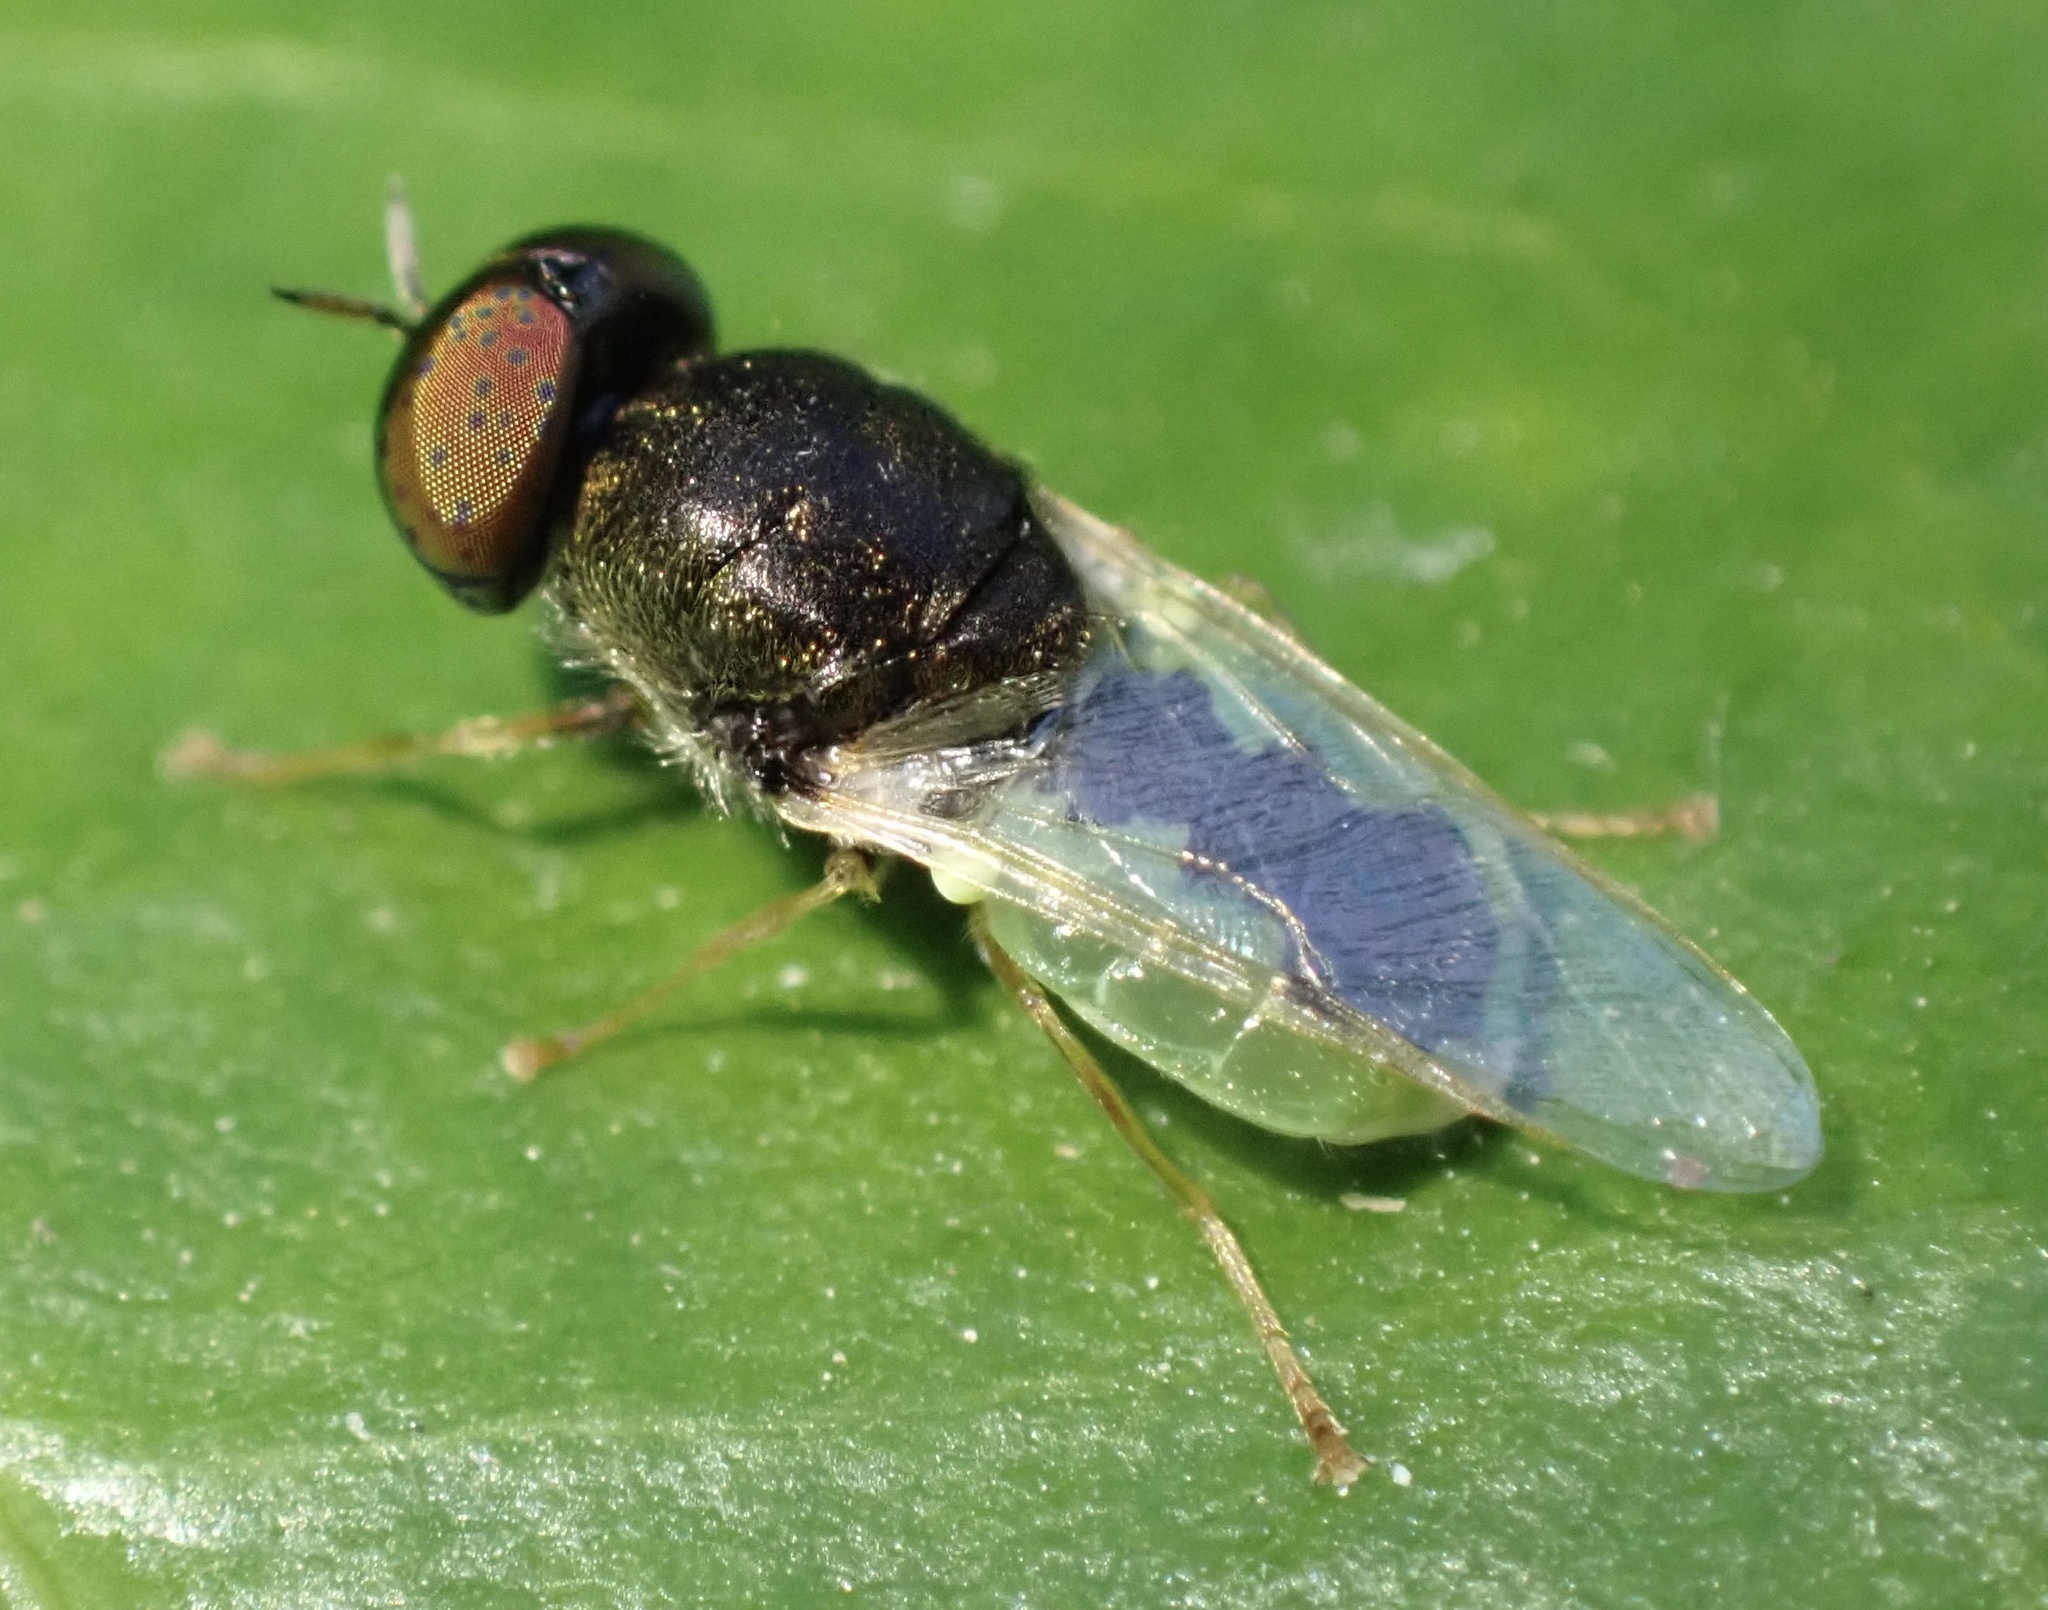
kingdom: Animalia
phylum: Arthropoda
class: Insecta
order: Diptera
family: Stratiomyidae
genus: Oplodontha
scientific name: Oplodontha viridula
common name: Common green colonel
